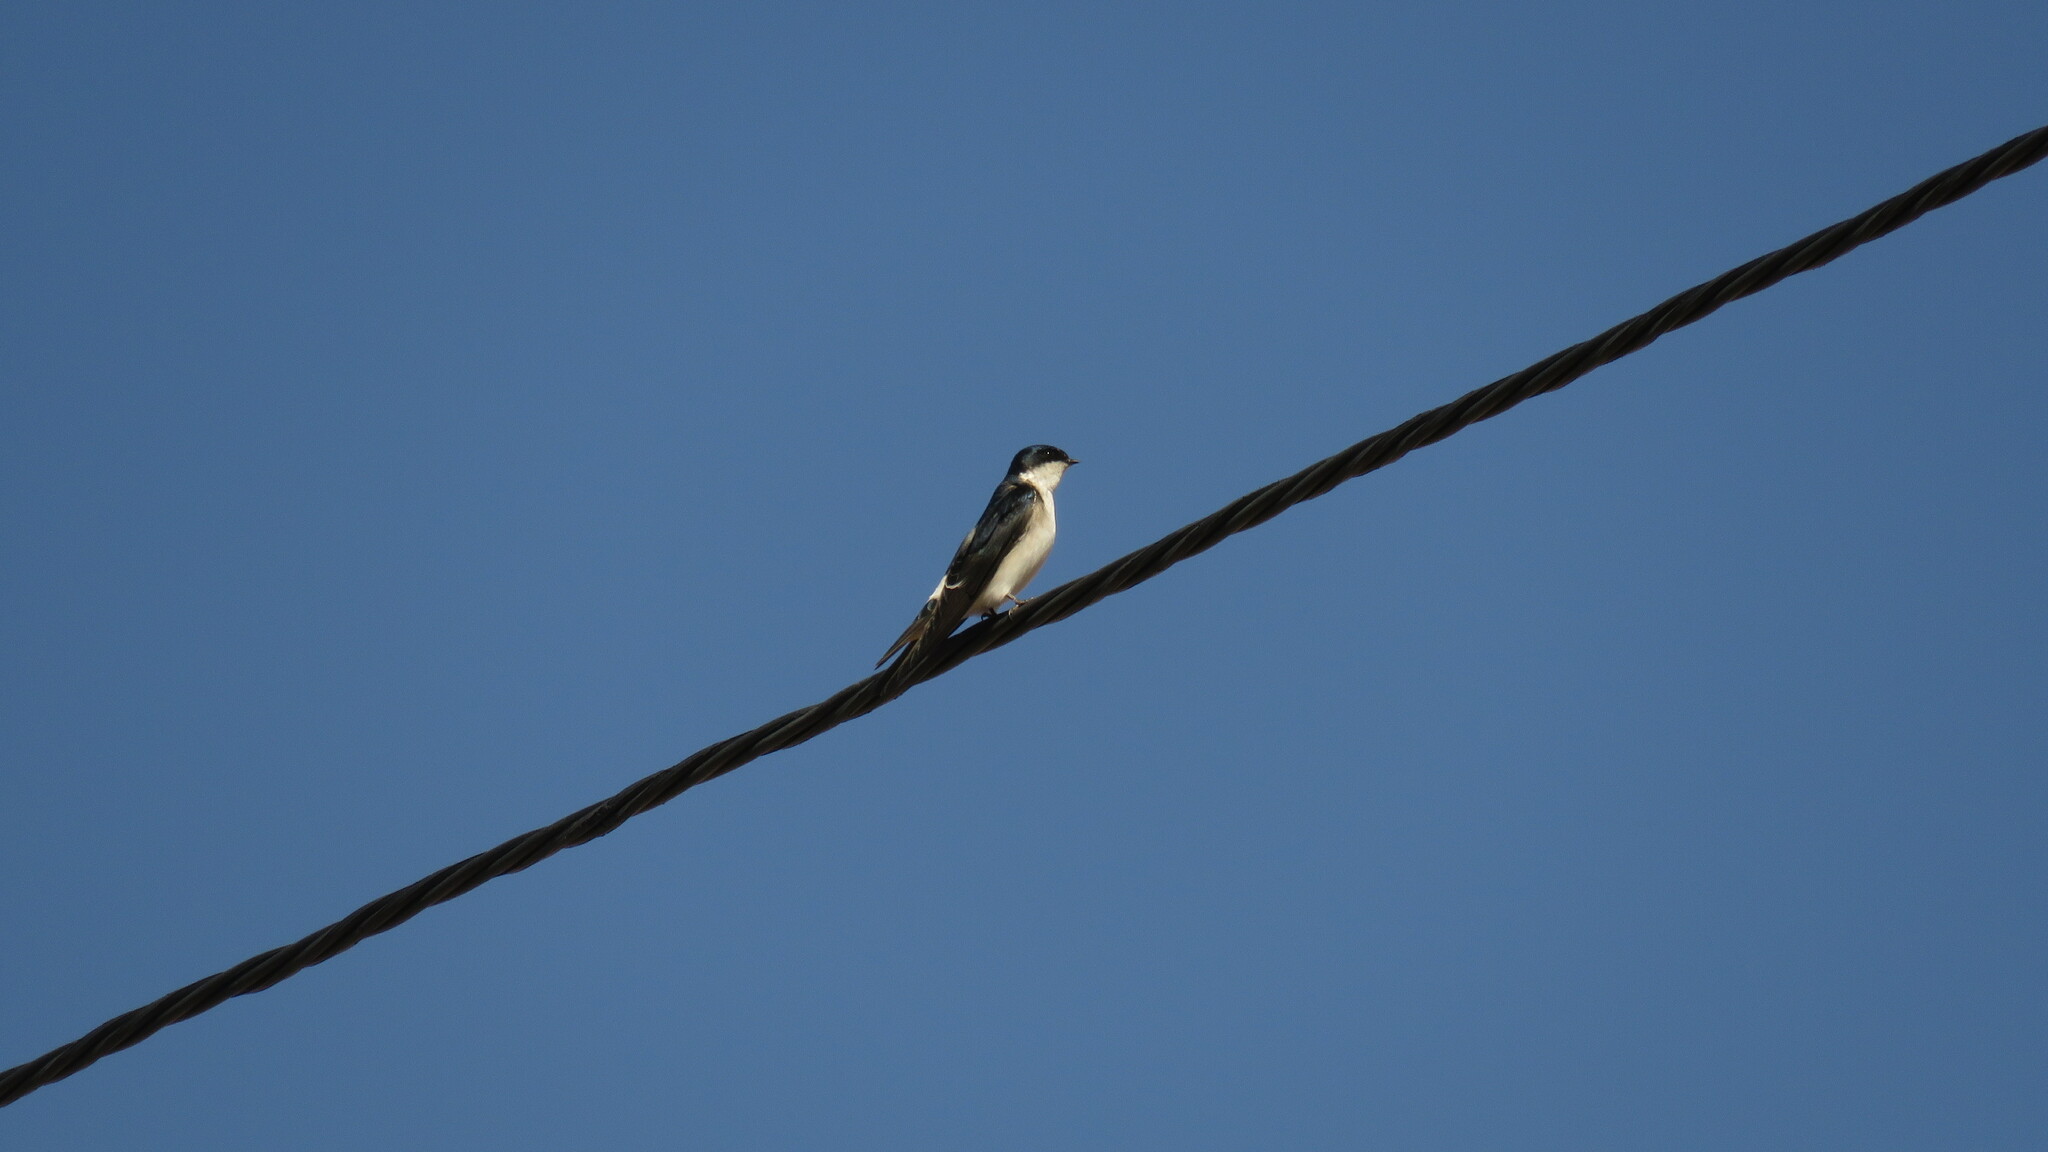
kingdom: Animalia
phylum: Chordata
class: Aves
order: Passeriformes
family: Hirundinidae
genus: Tachycineta
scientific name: Tachycineta leucopyga
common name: Chilean swallow
